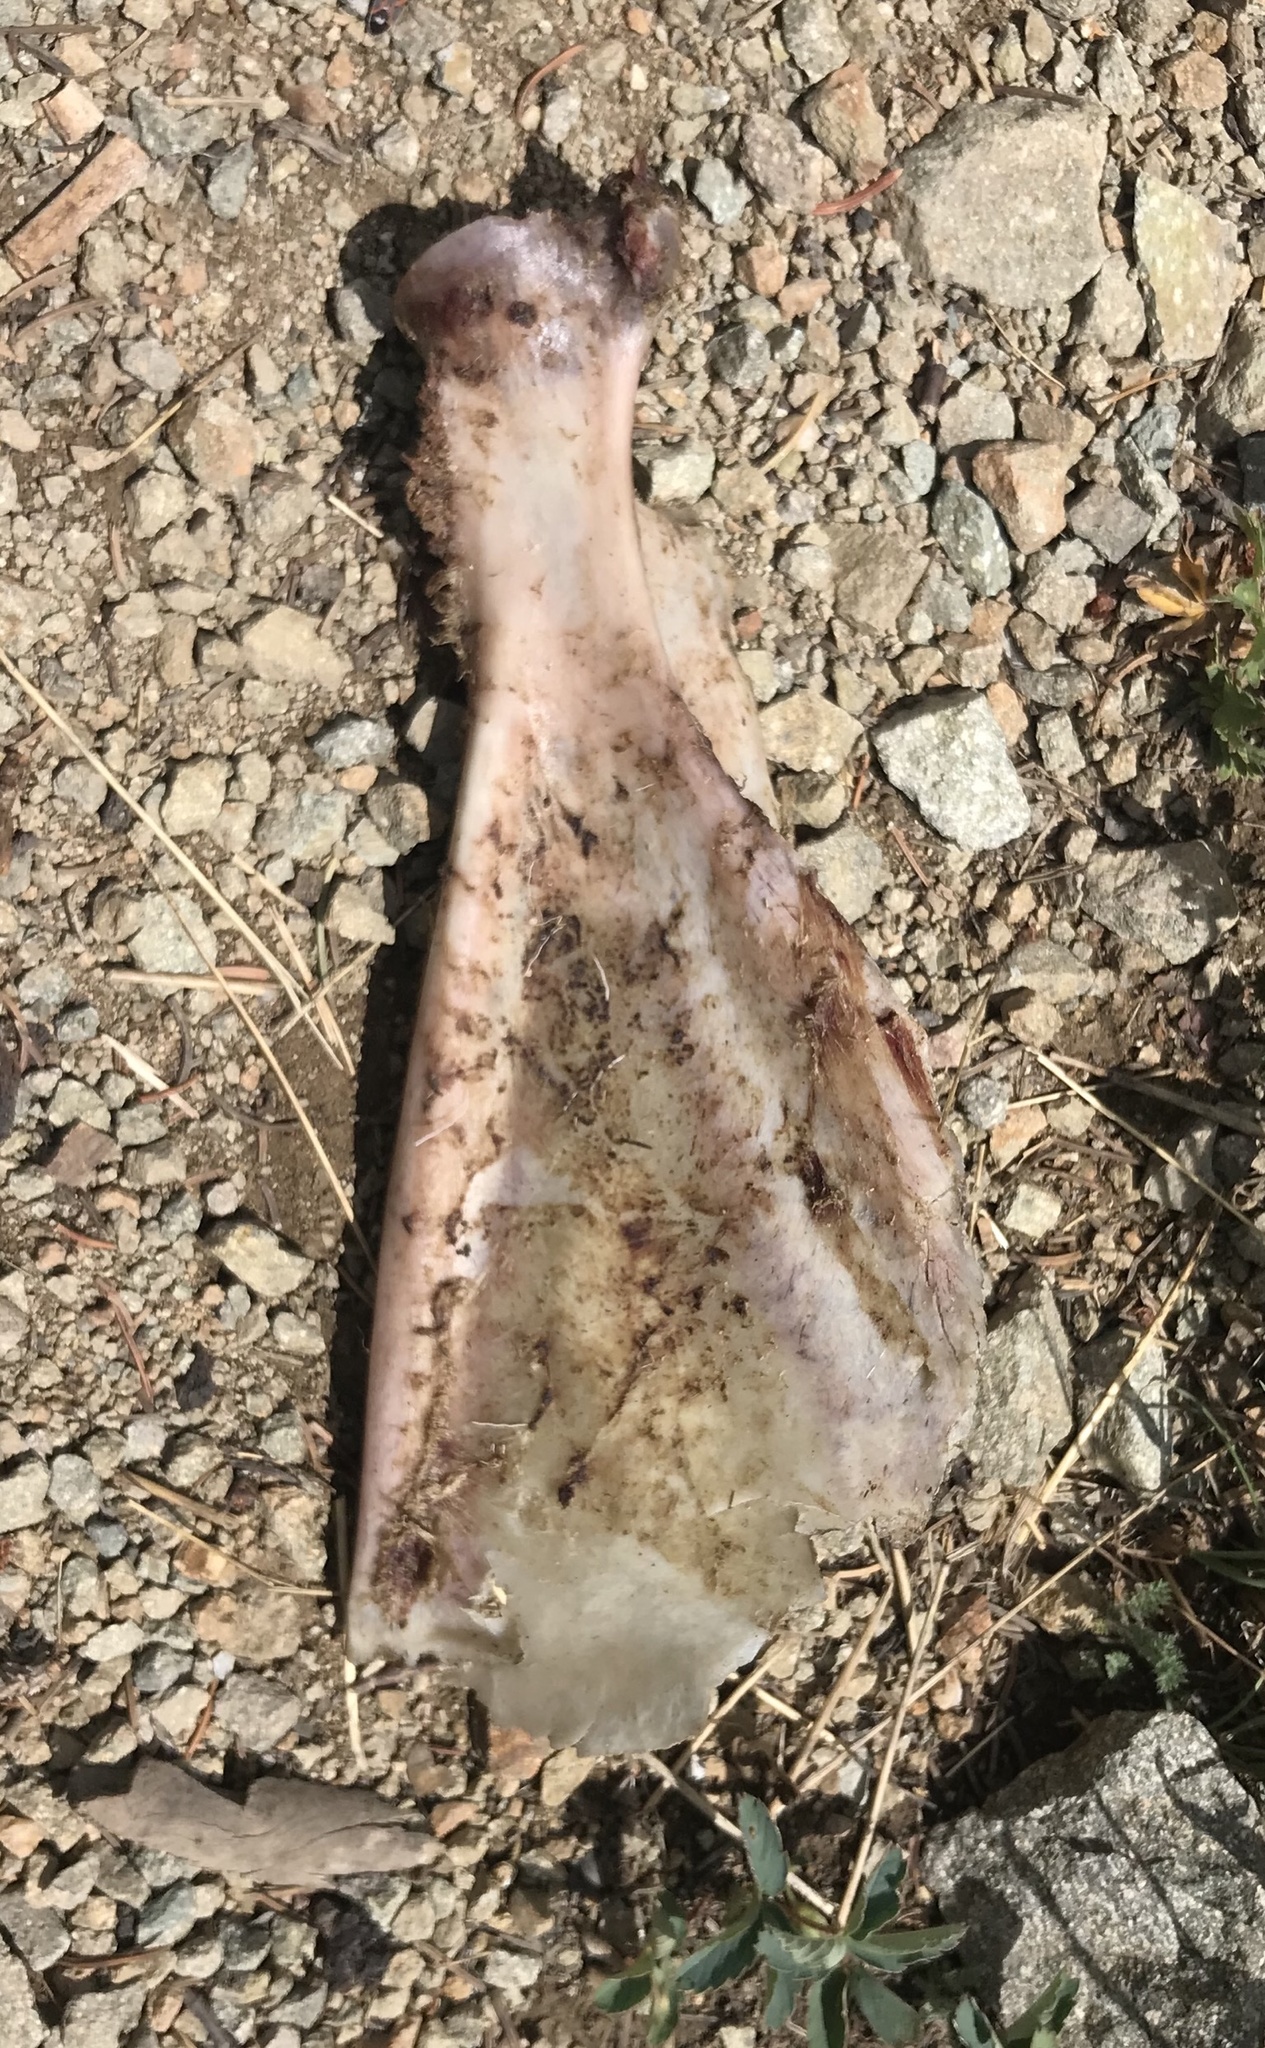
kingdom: Animalia
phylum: Chordata
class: Mammalia
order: Artiodactyla
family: Bovidae
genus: Ovis
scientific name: Ovis canadensis
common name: Bighorn sheep
